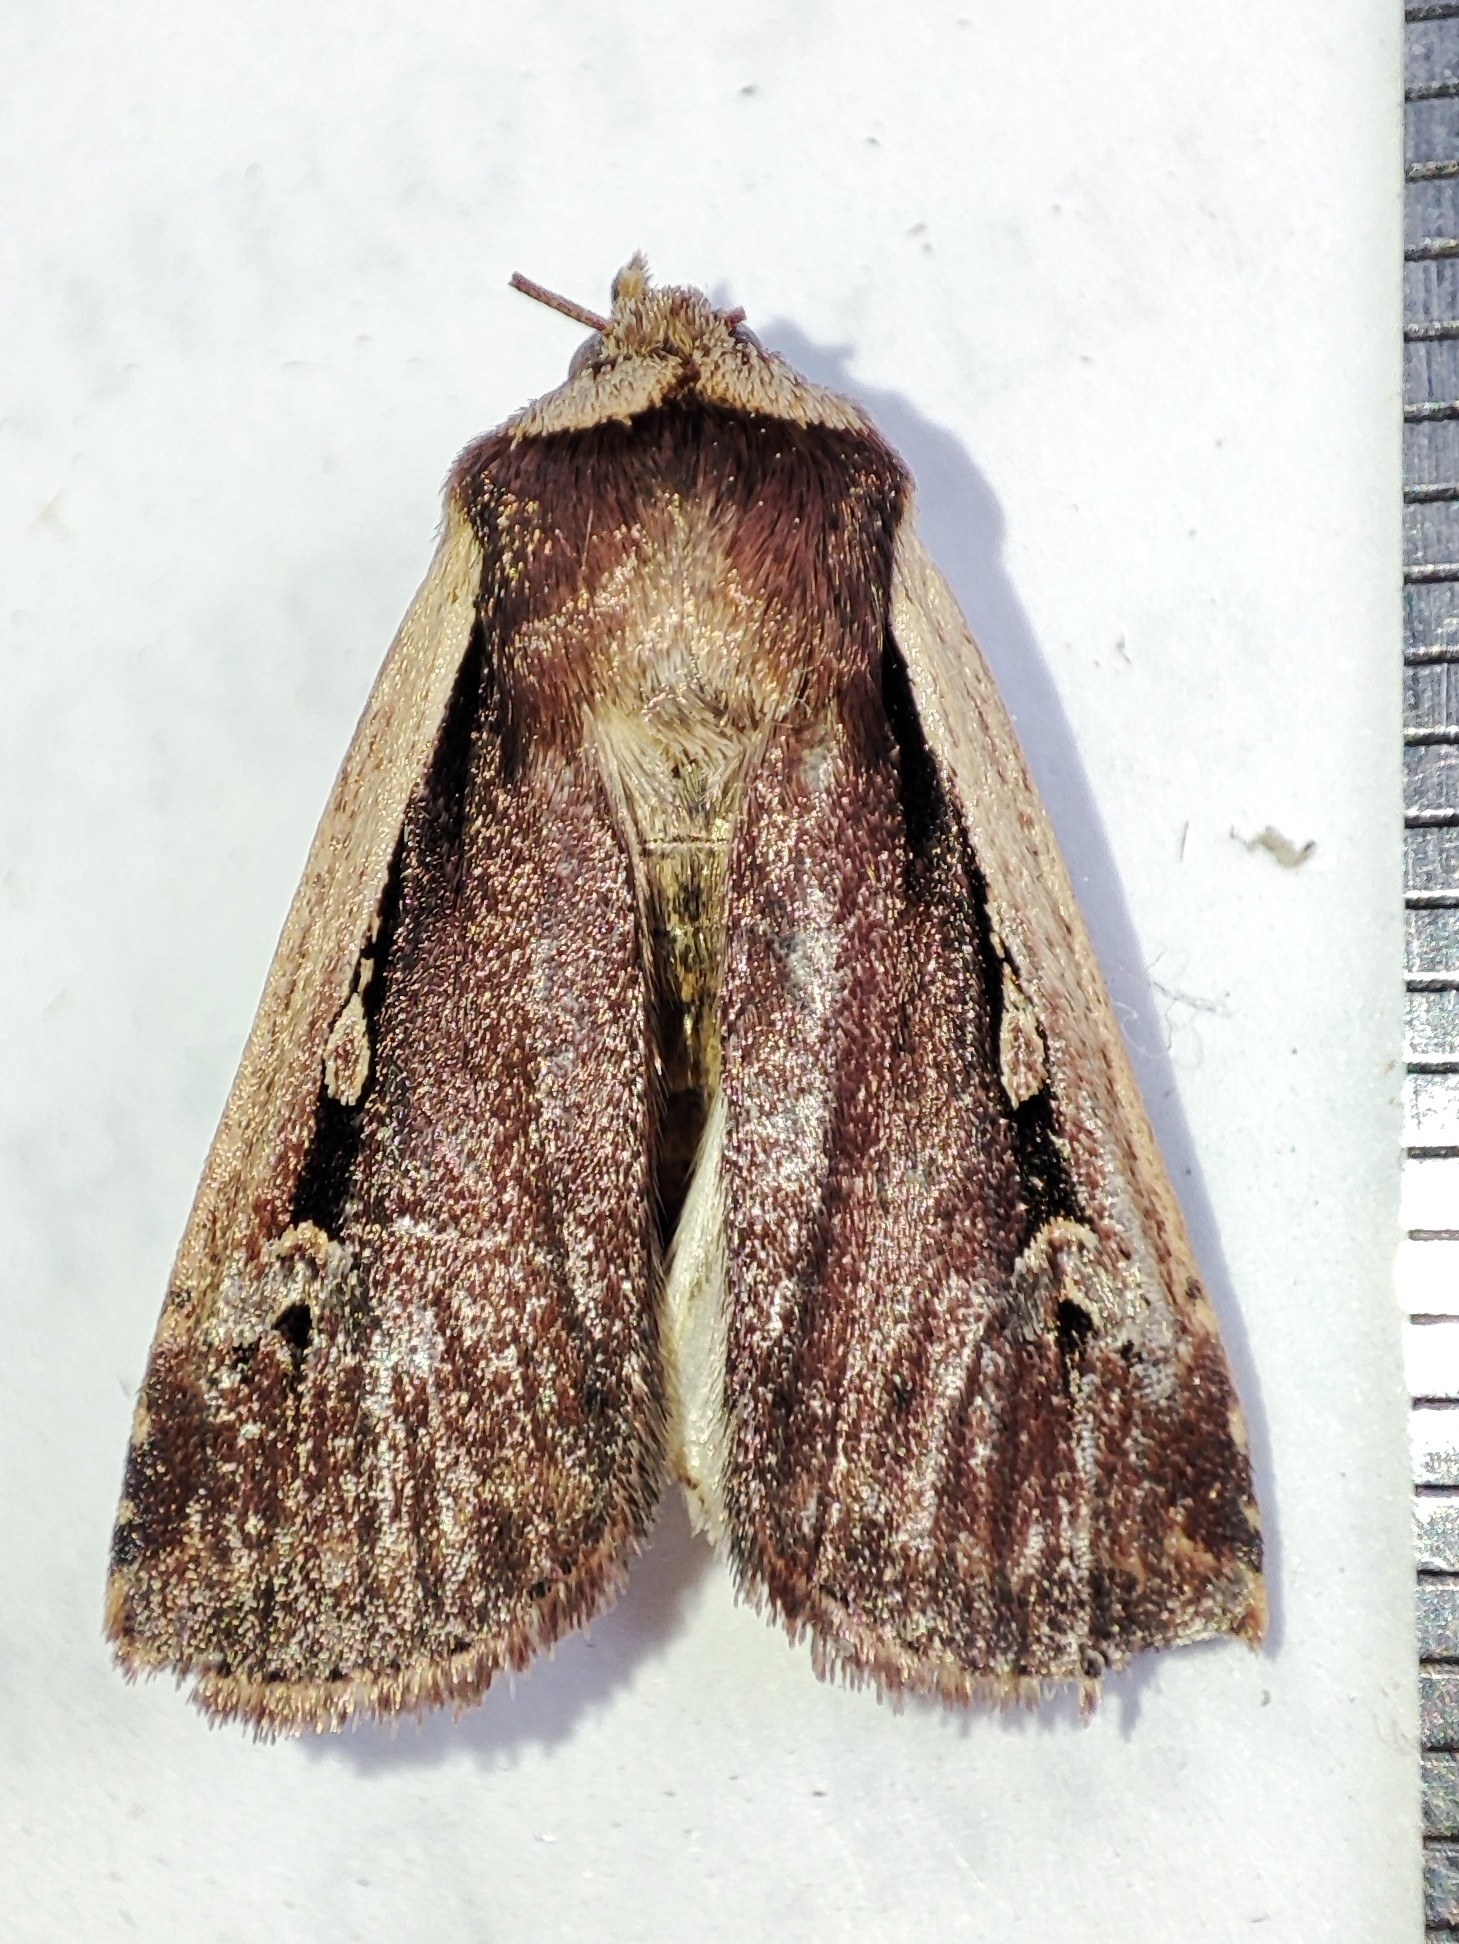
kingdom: Animalia
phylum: Arthropoda
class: Insecta
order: Lepidoptera
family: Noctuidae
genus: Ochropleura
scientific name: Ochropleura plecta
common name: Flame shoulder
